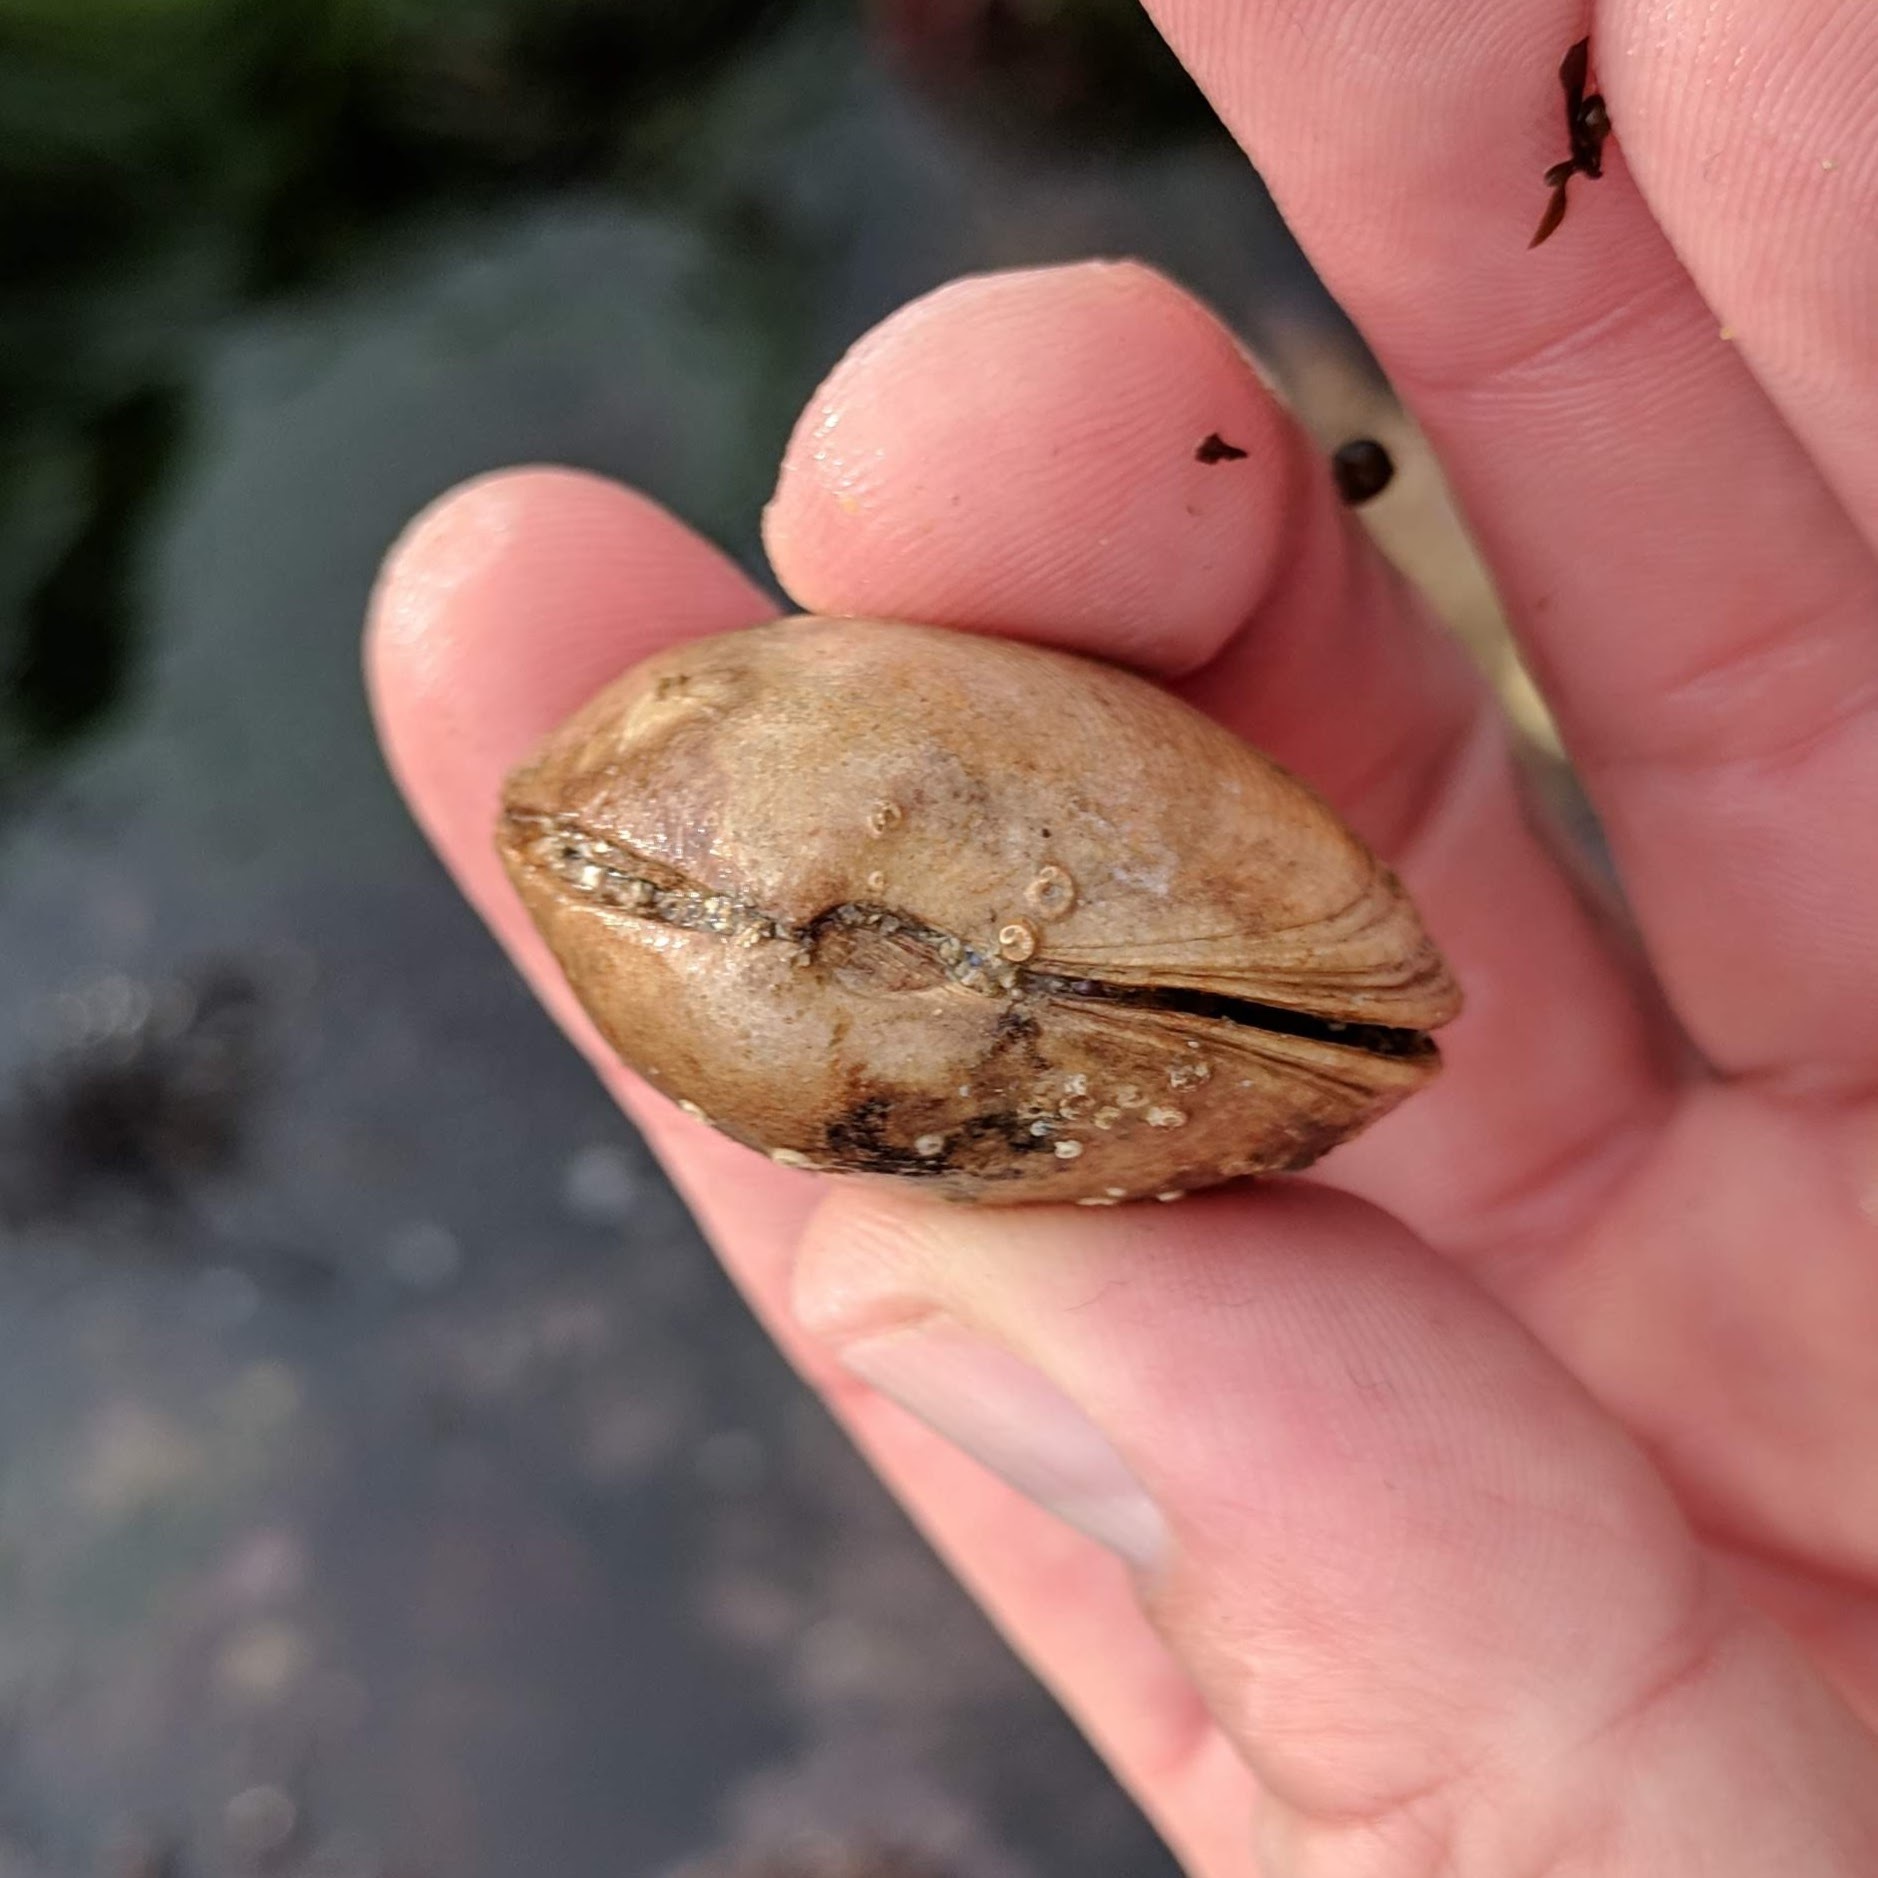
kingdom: Animalia
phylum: Mollusca
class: Bivalvia
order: Lucinida
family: Lucinidae
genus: Epilucina
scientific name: Epilucina californica
